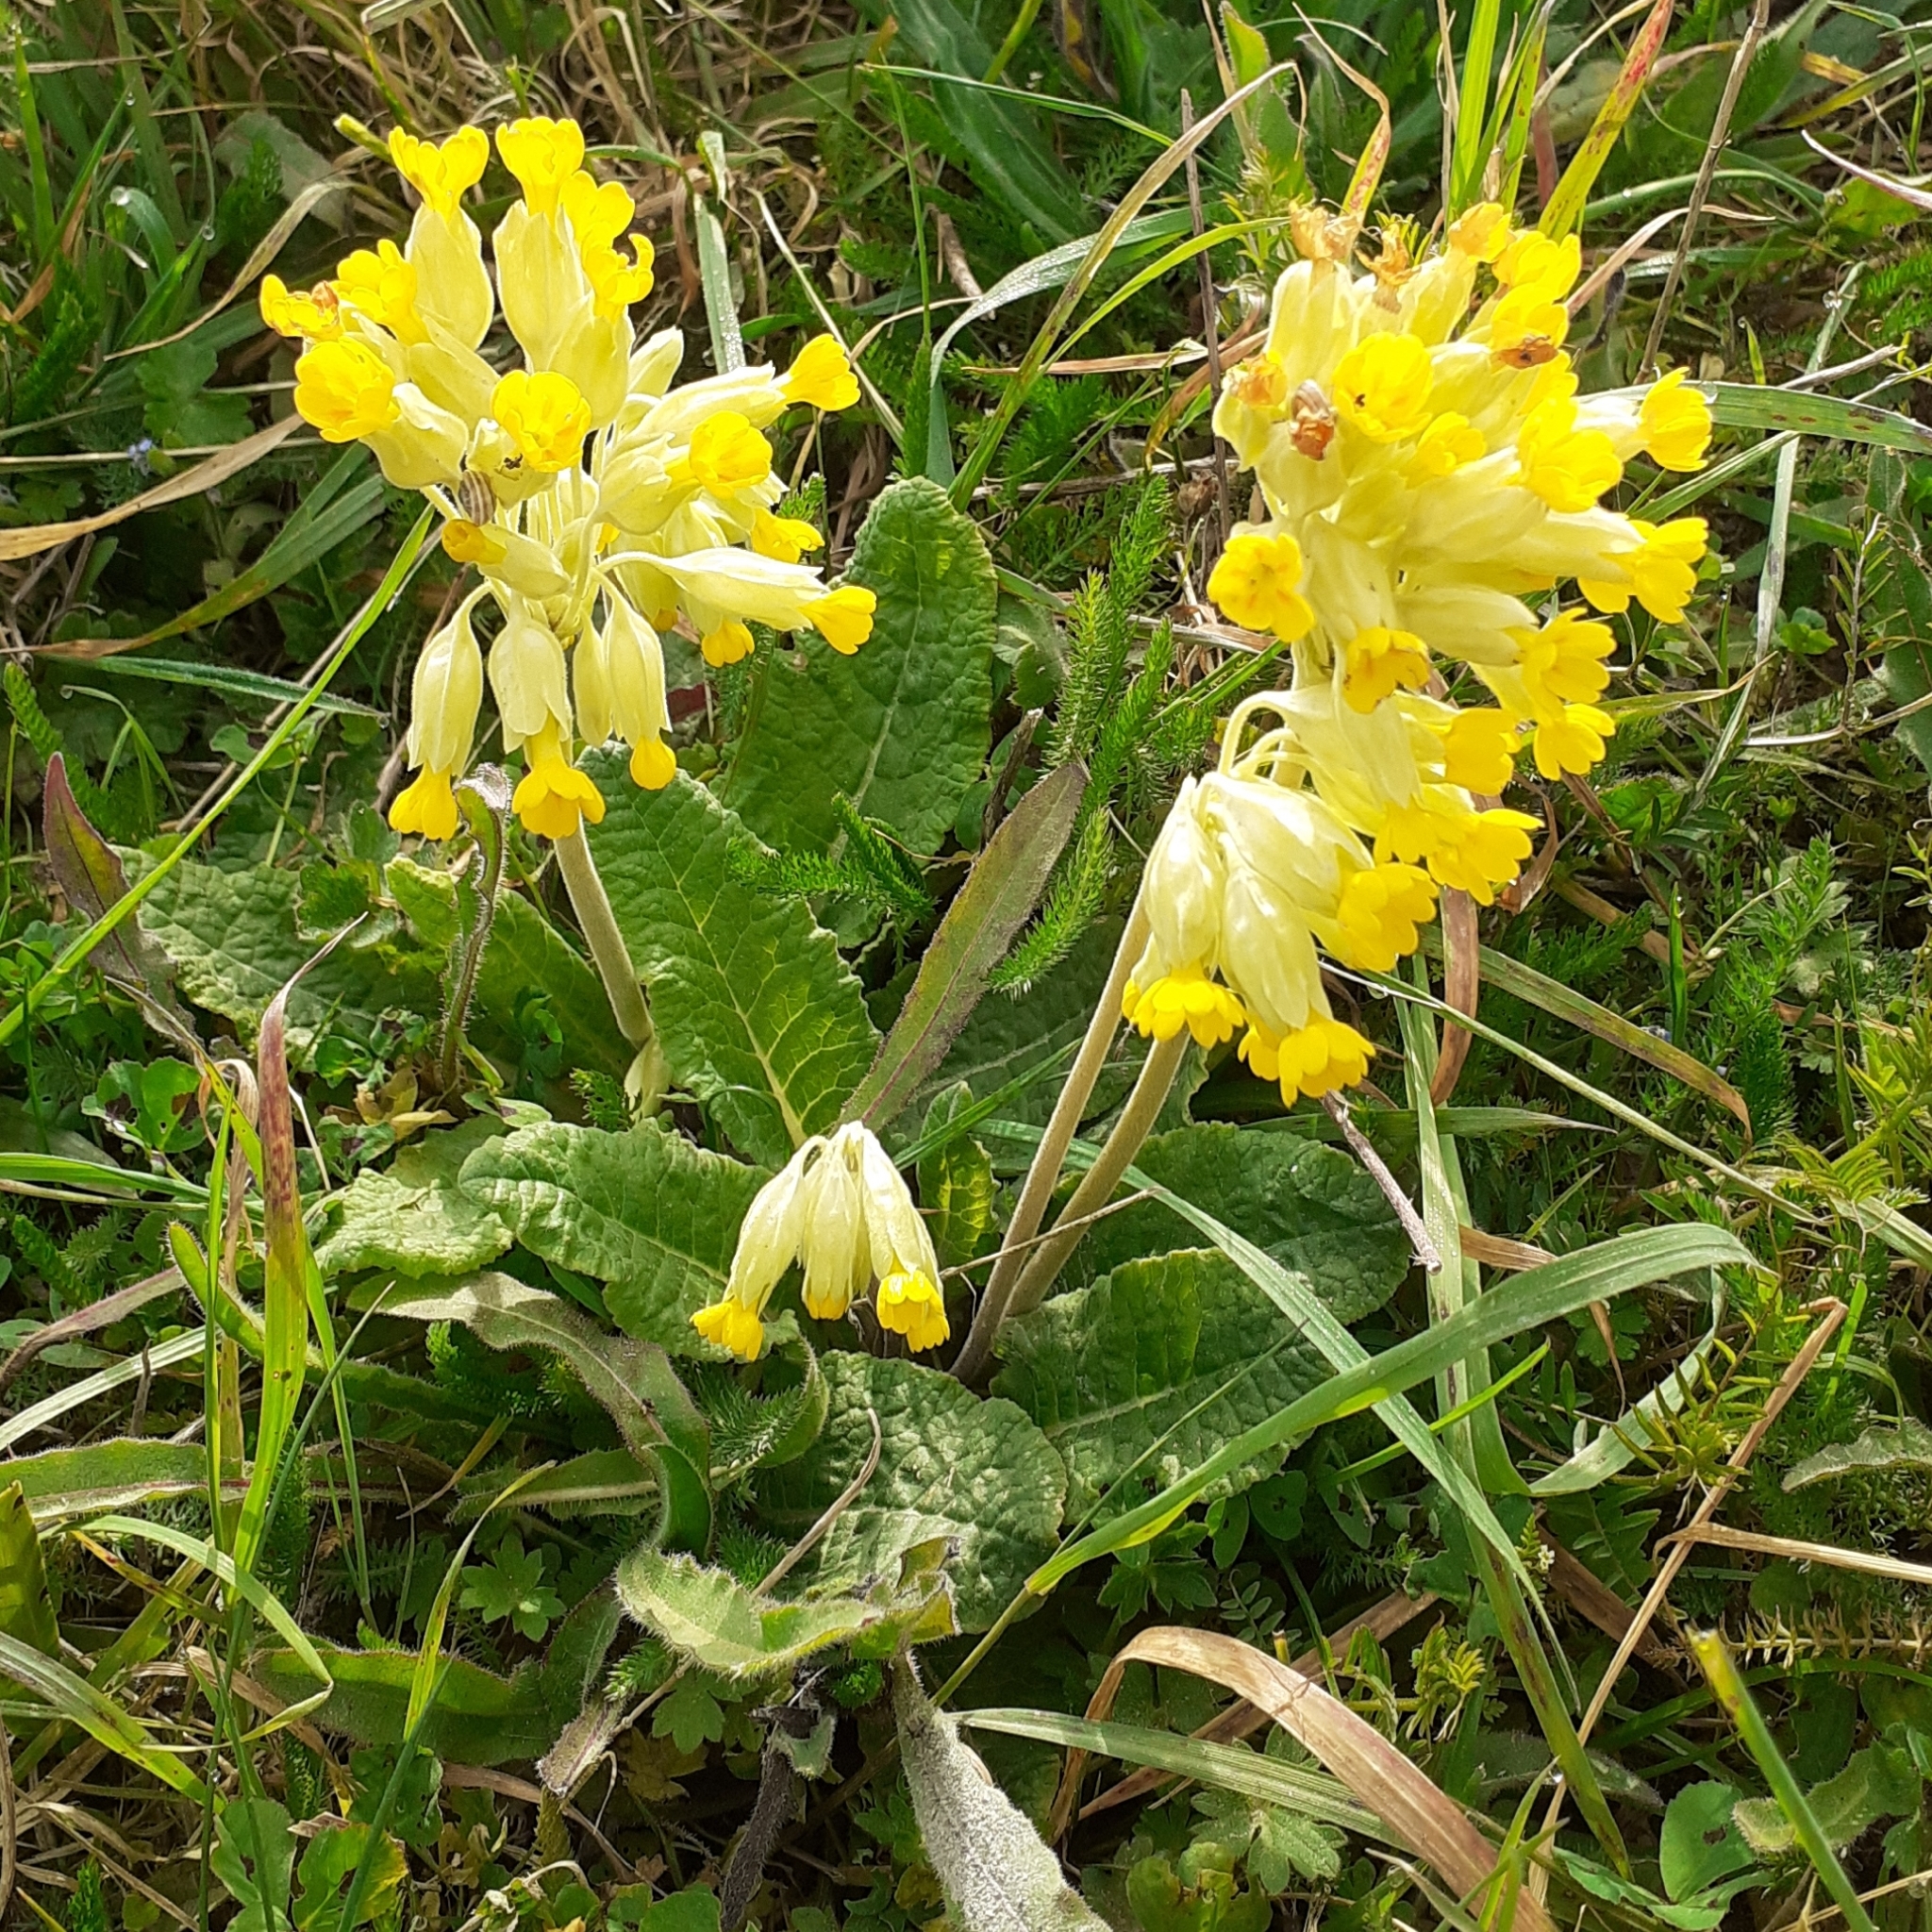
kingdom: Plantae
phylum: Tracheophyta
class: Magnoliopsida
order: Ericales
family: Primulaceae
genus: Primula
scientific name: Primula veris
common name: Cowslip
